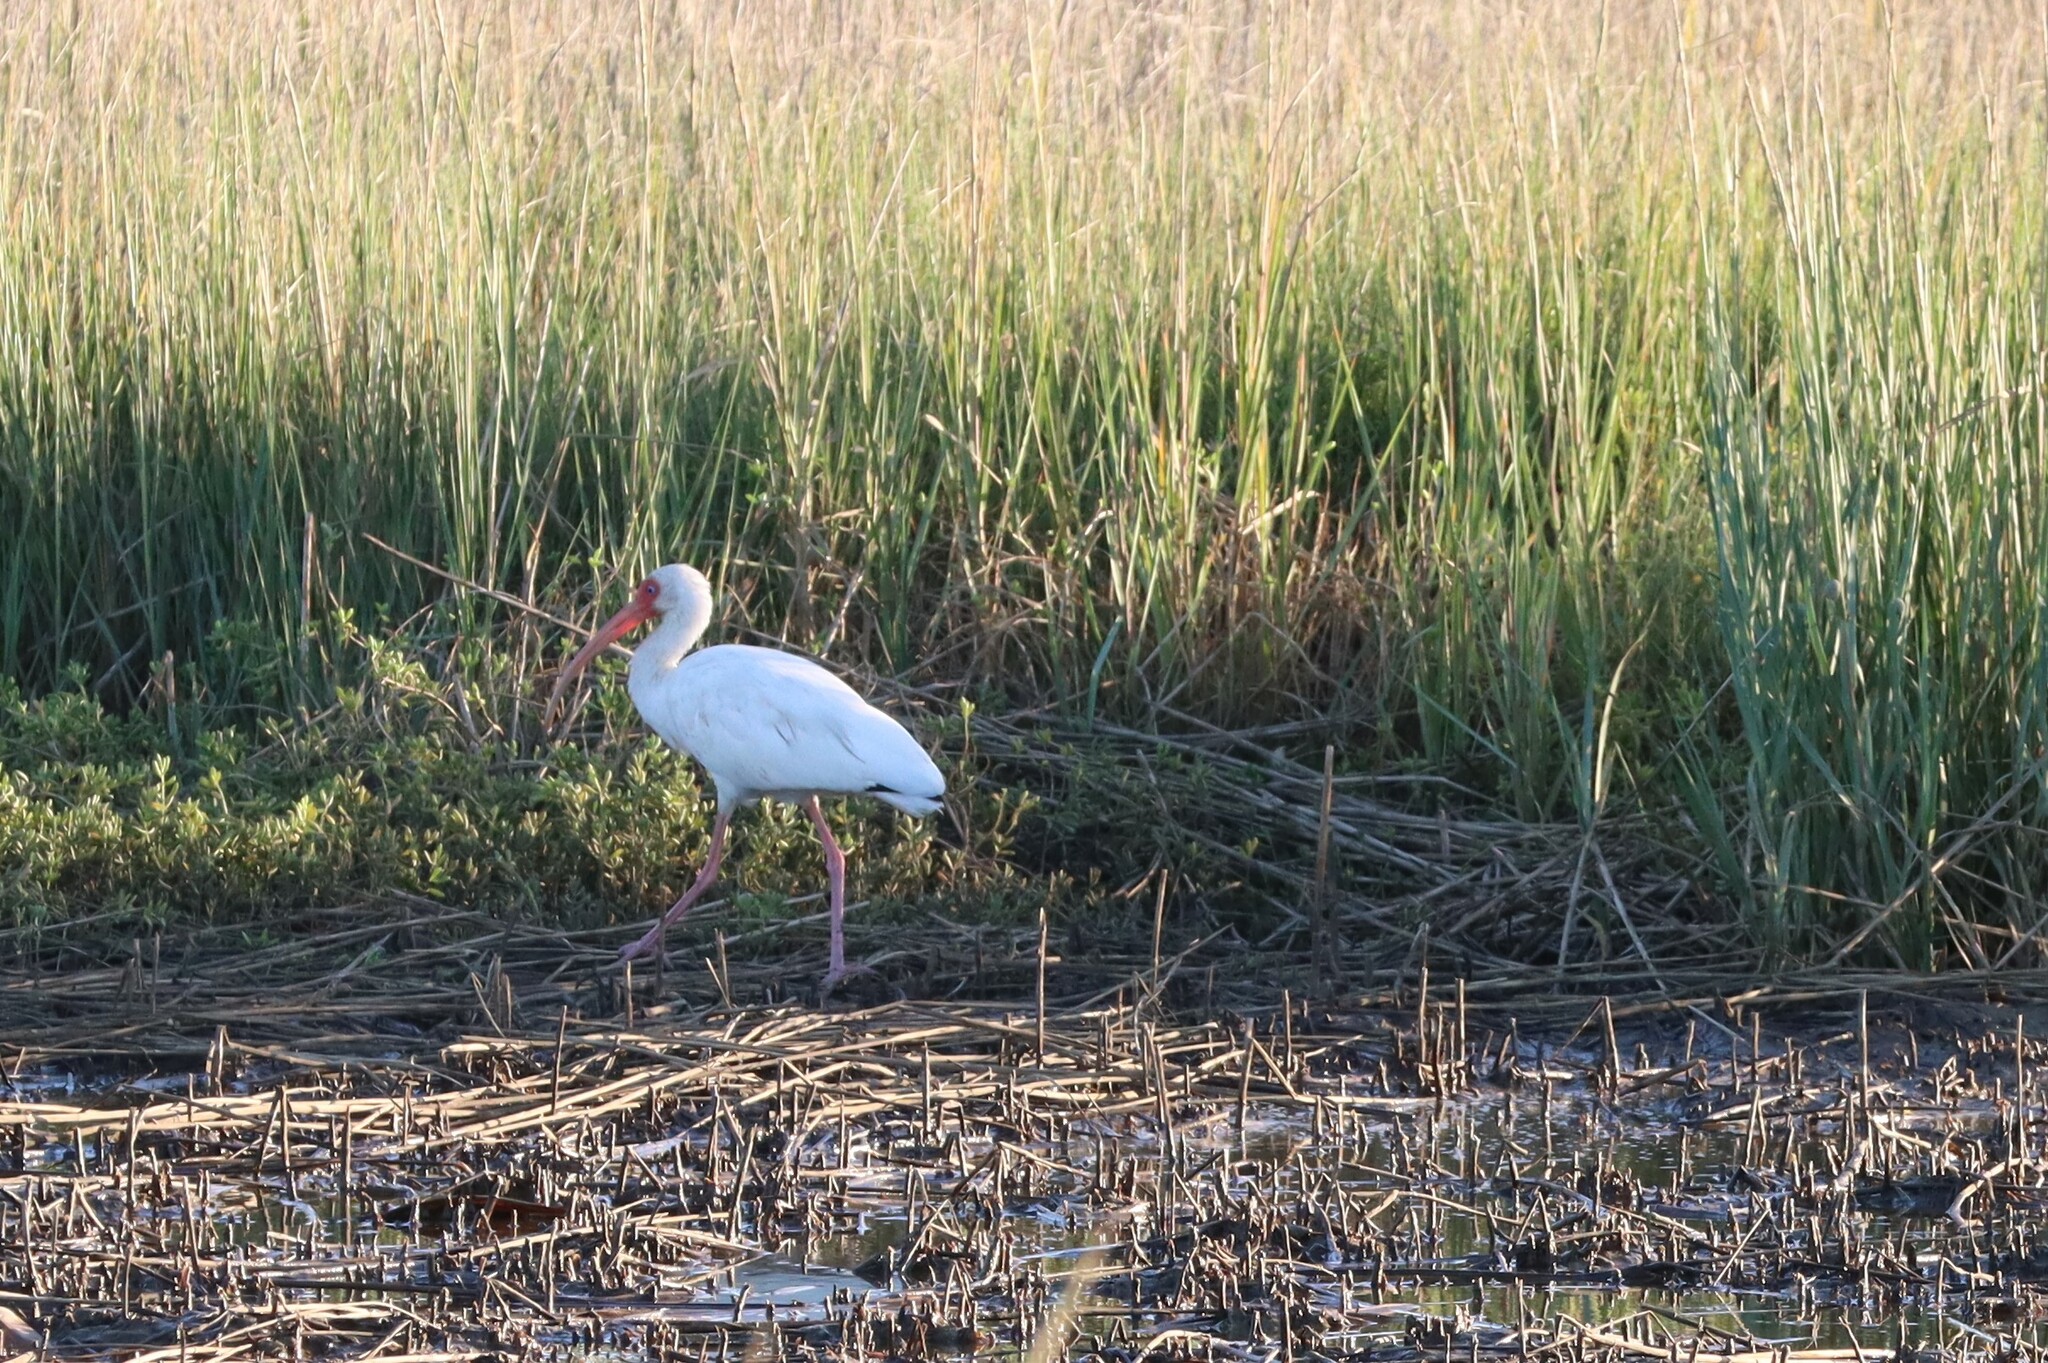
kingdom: Animalia
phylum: Chordata
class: Aves
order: Pelecaniformes
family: Threskiornithidae
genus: Eudocimus
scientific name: Eudocimus albus
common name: White ibis
